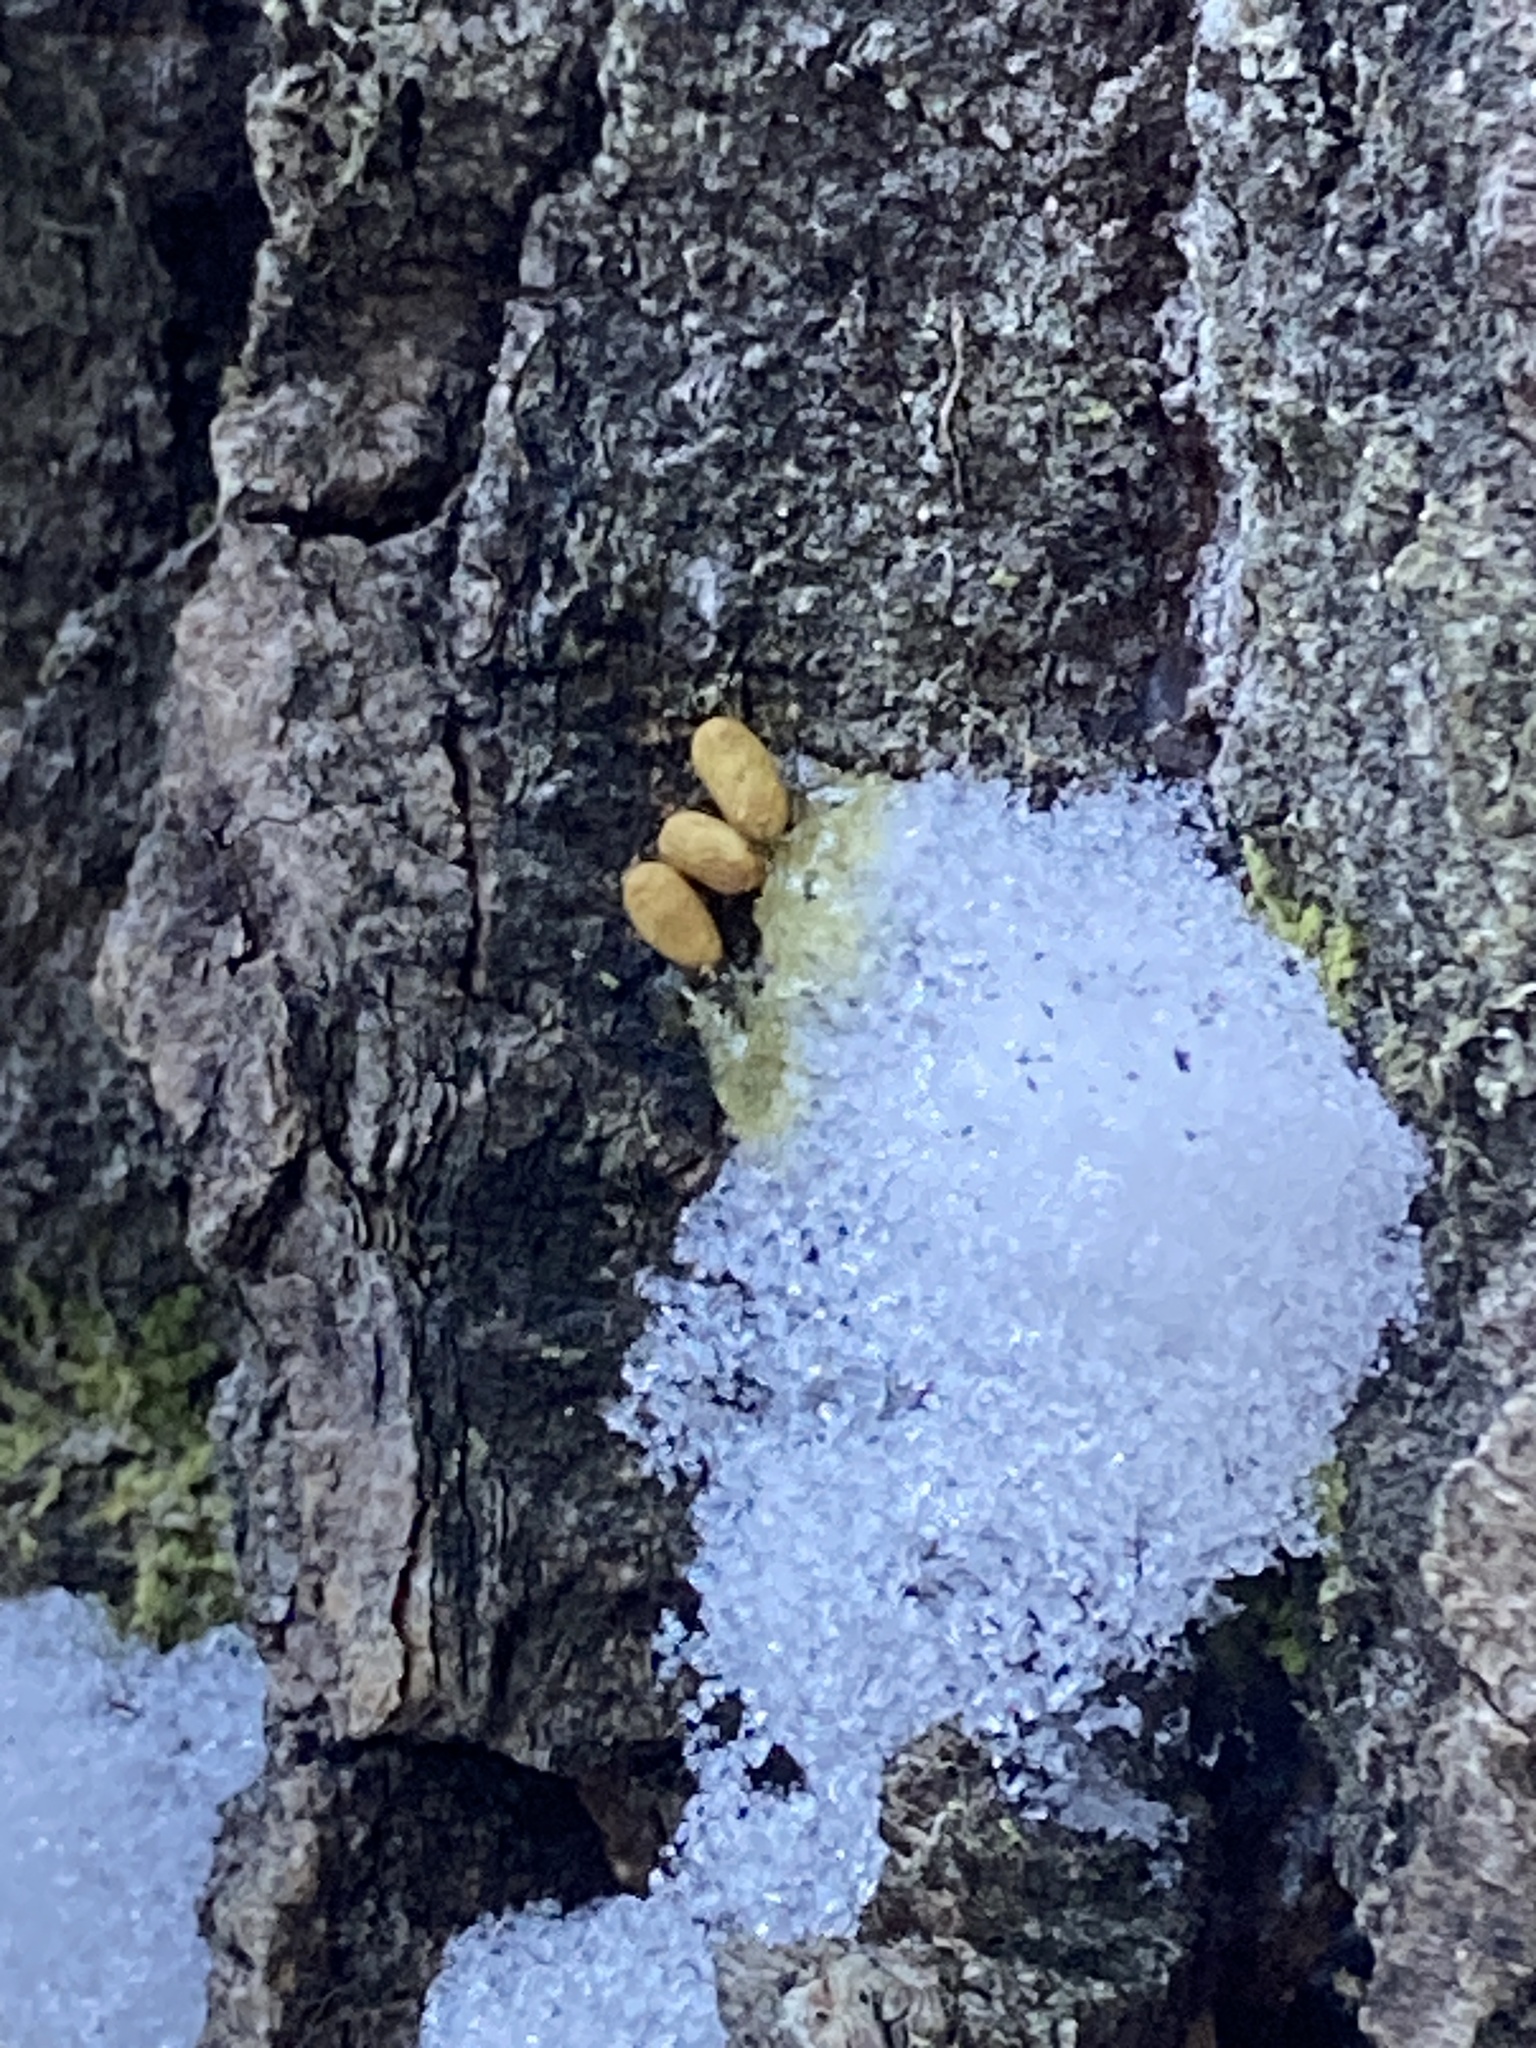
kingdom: Animalia
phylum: Chordata
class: Mammalia
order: Rodentia
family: Sciuridae
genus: Pteromys
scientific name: Pteromys volans
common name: Siberian flying squirrel
